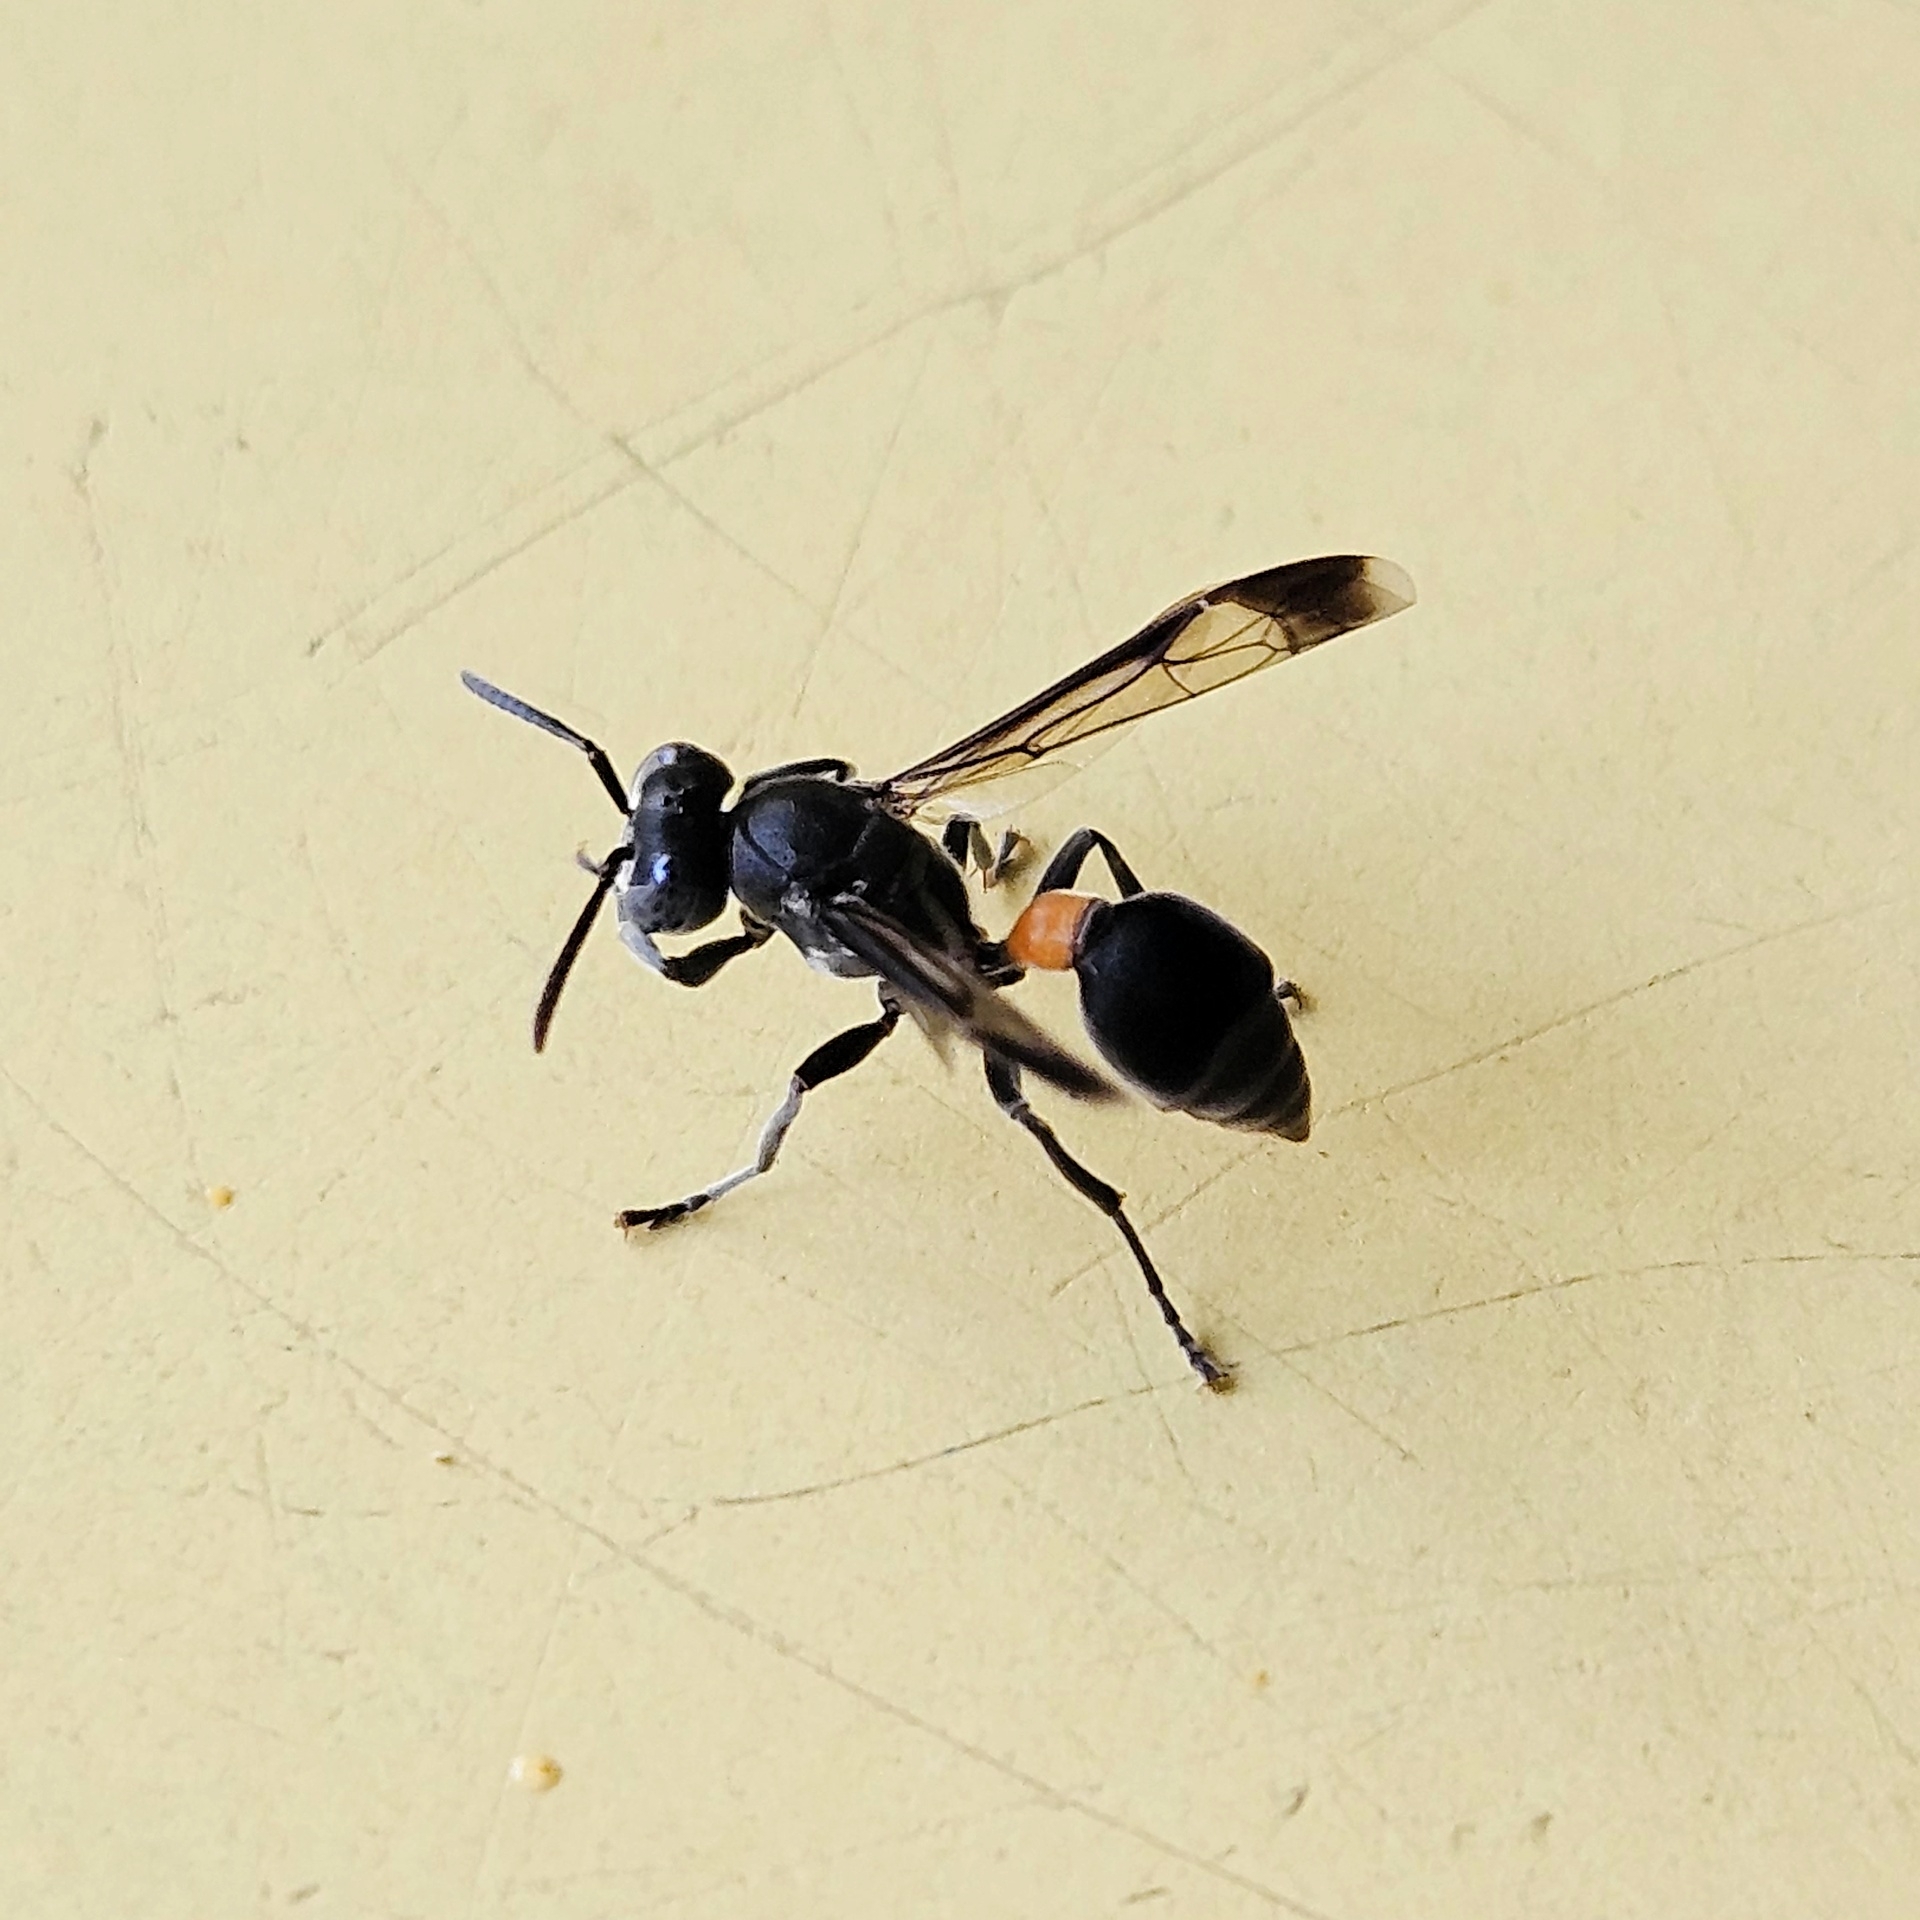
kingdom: Animalia
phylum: Arthropoda
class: Insecta
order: Hymenoptera
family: Vespidae
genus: Ropalidia
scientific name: Ropalidia sumatrae
